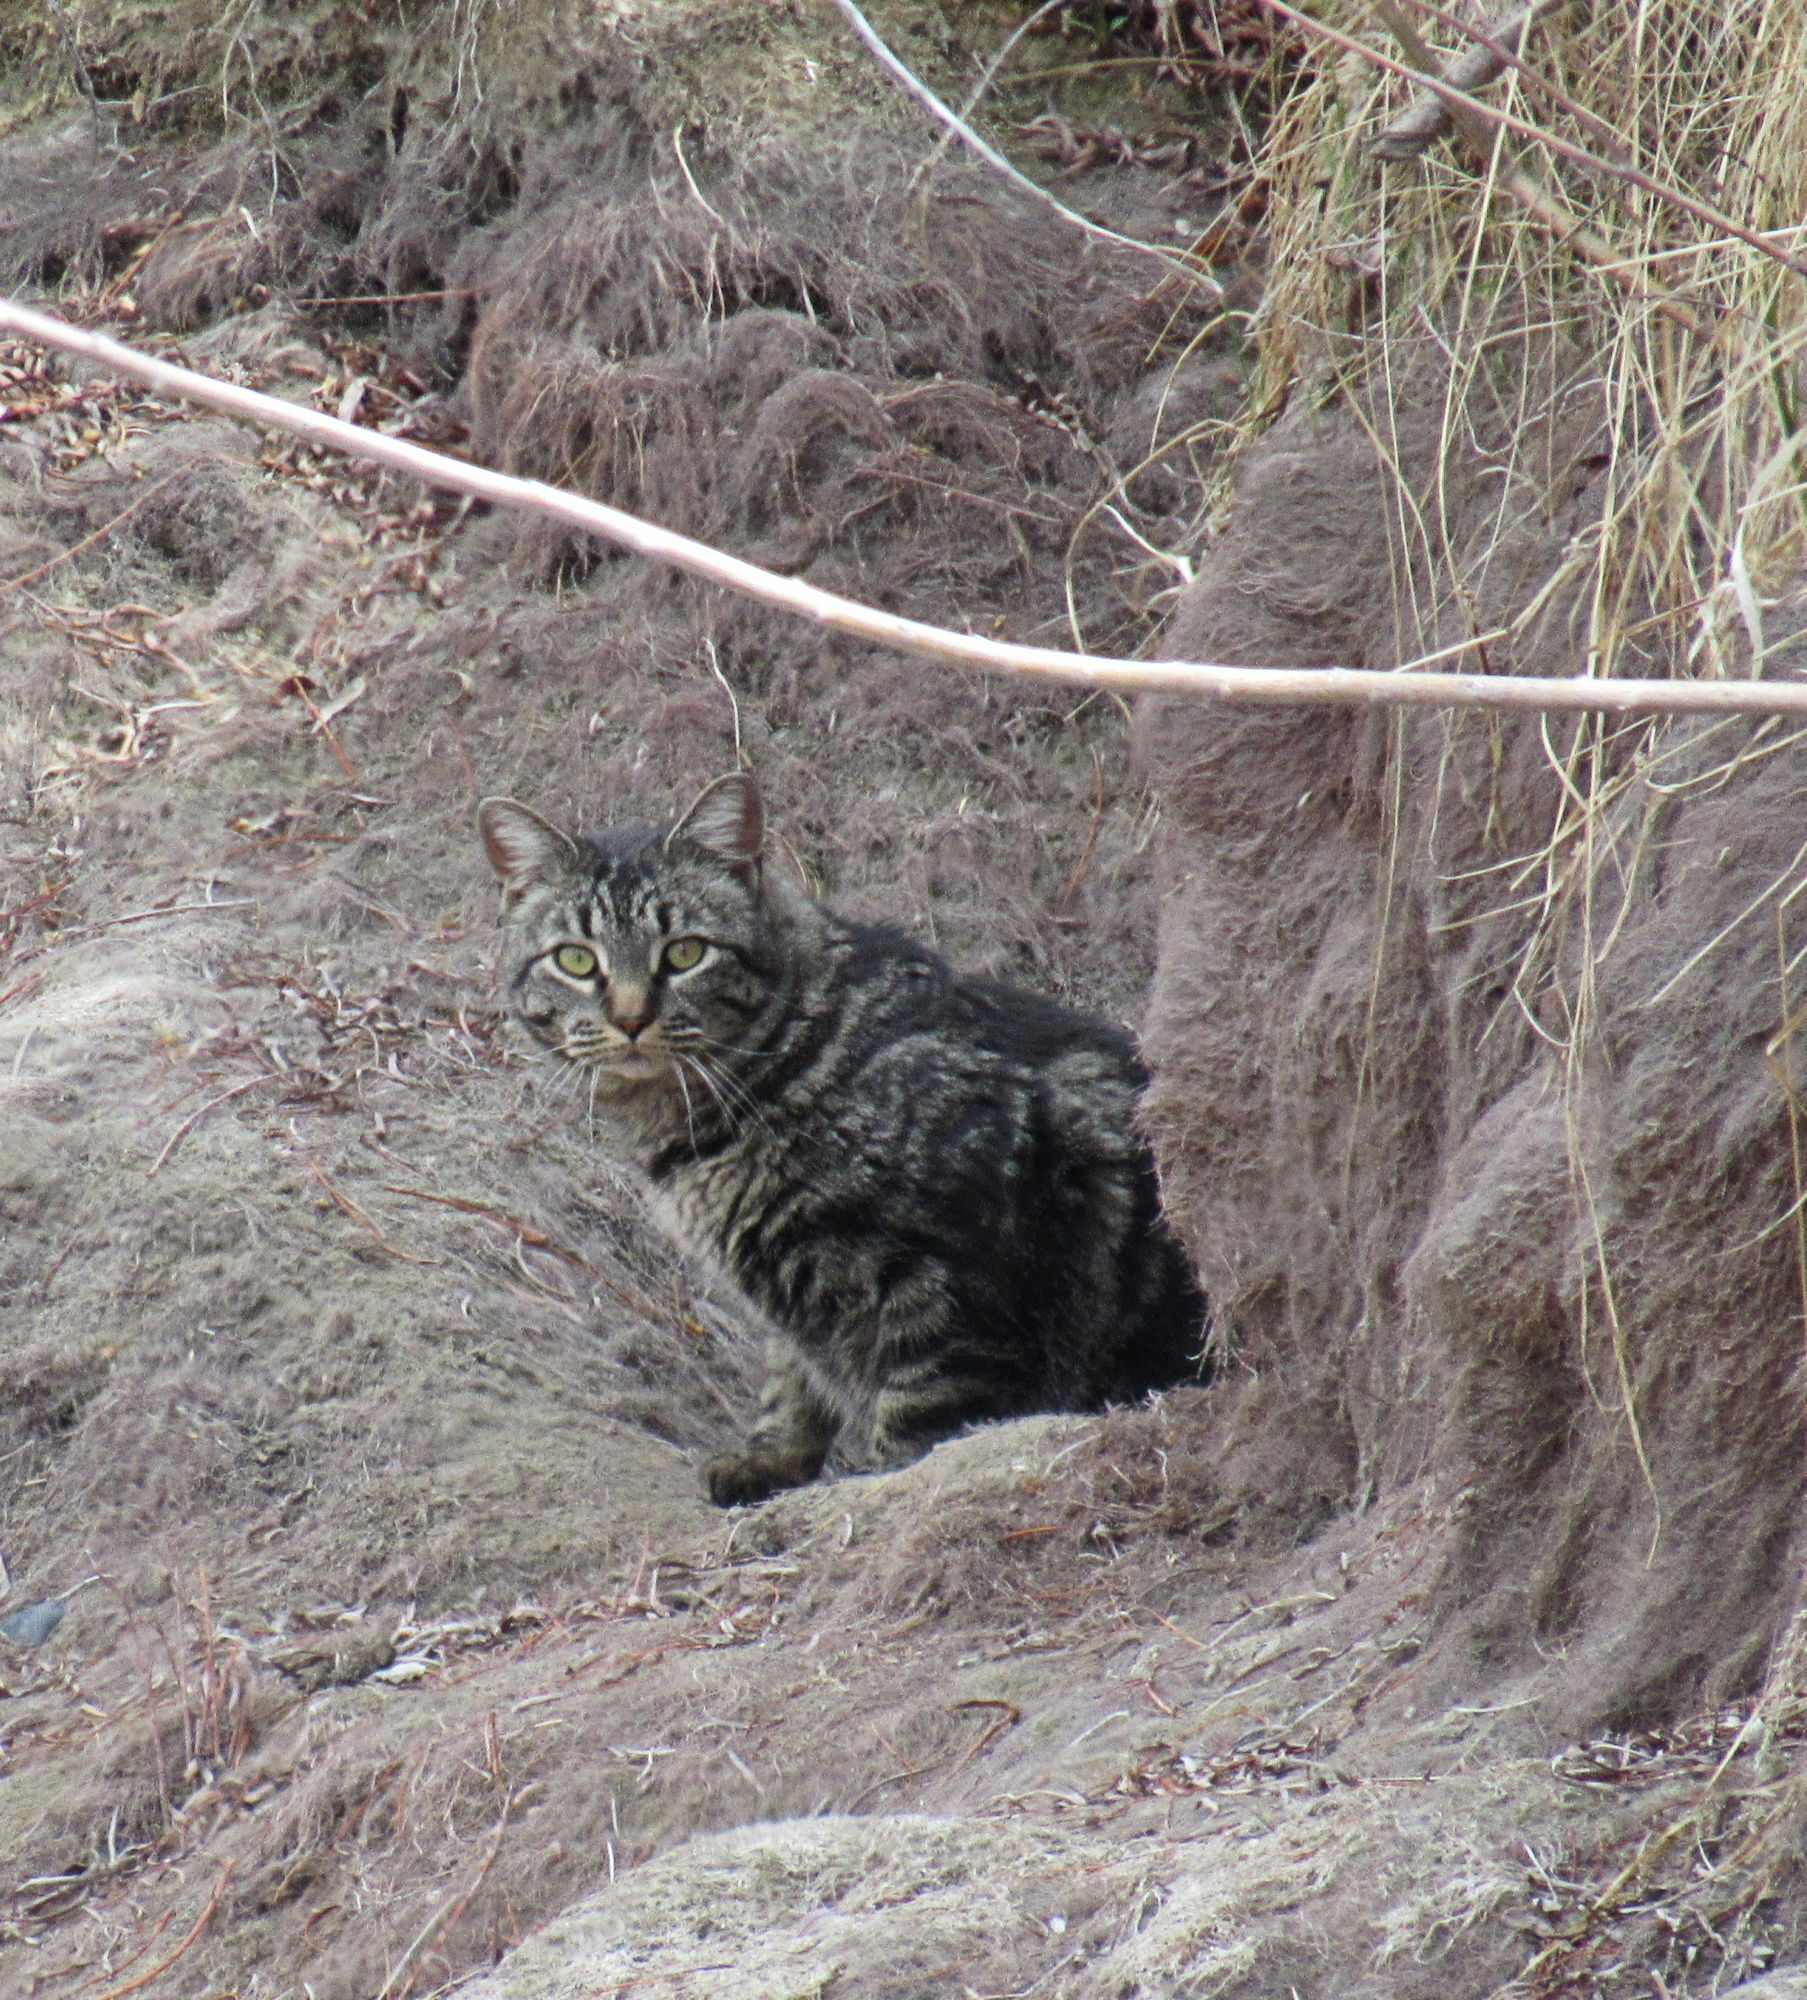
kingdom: Animalia
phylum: Chordata
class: Mammalia
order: Carnivora
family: Felidae
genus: Felis
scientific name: Felis catus
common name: Domestic cat
